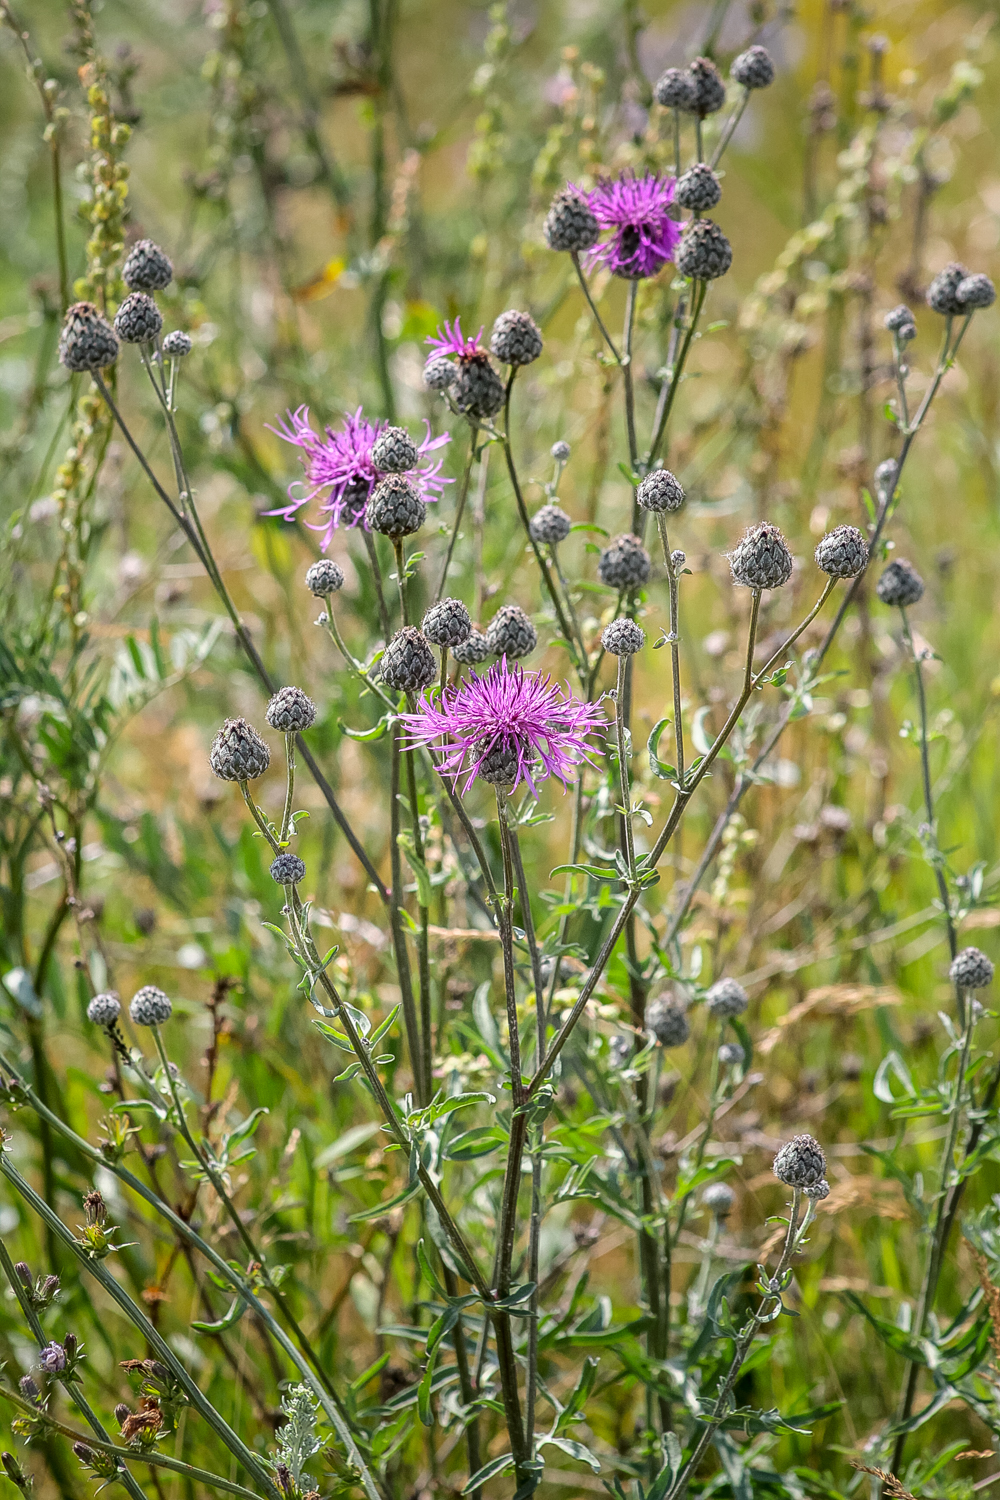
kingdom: Plantae
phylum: Tracheophyta
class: Magnoliopsida
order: Asterales
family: Asteraceae
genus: Centaurea
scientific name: Centaurea scabiosa
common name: Greater knapweed
